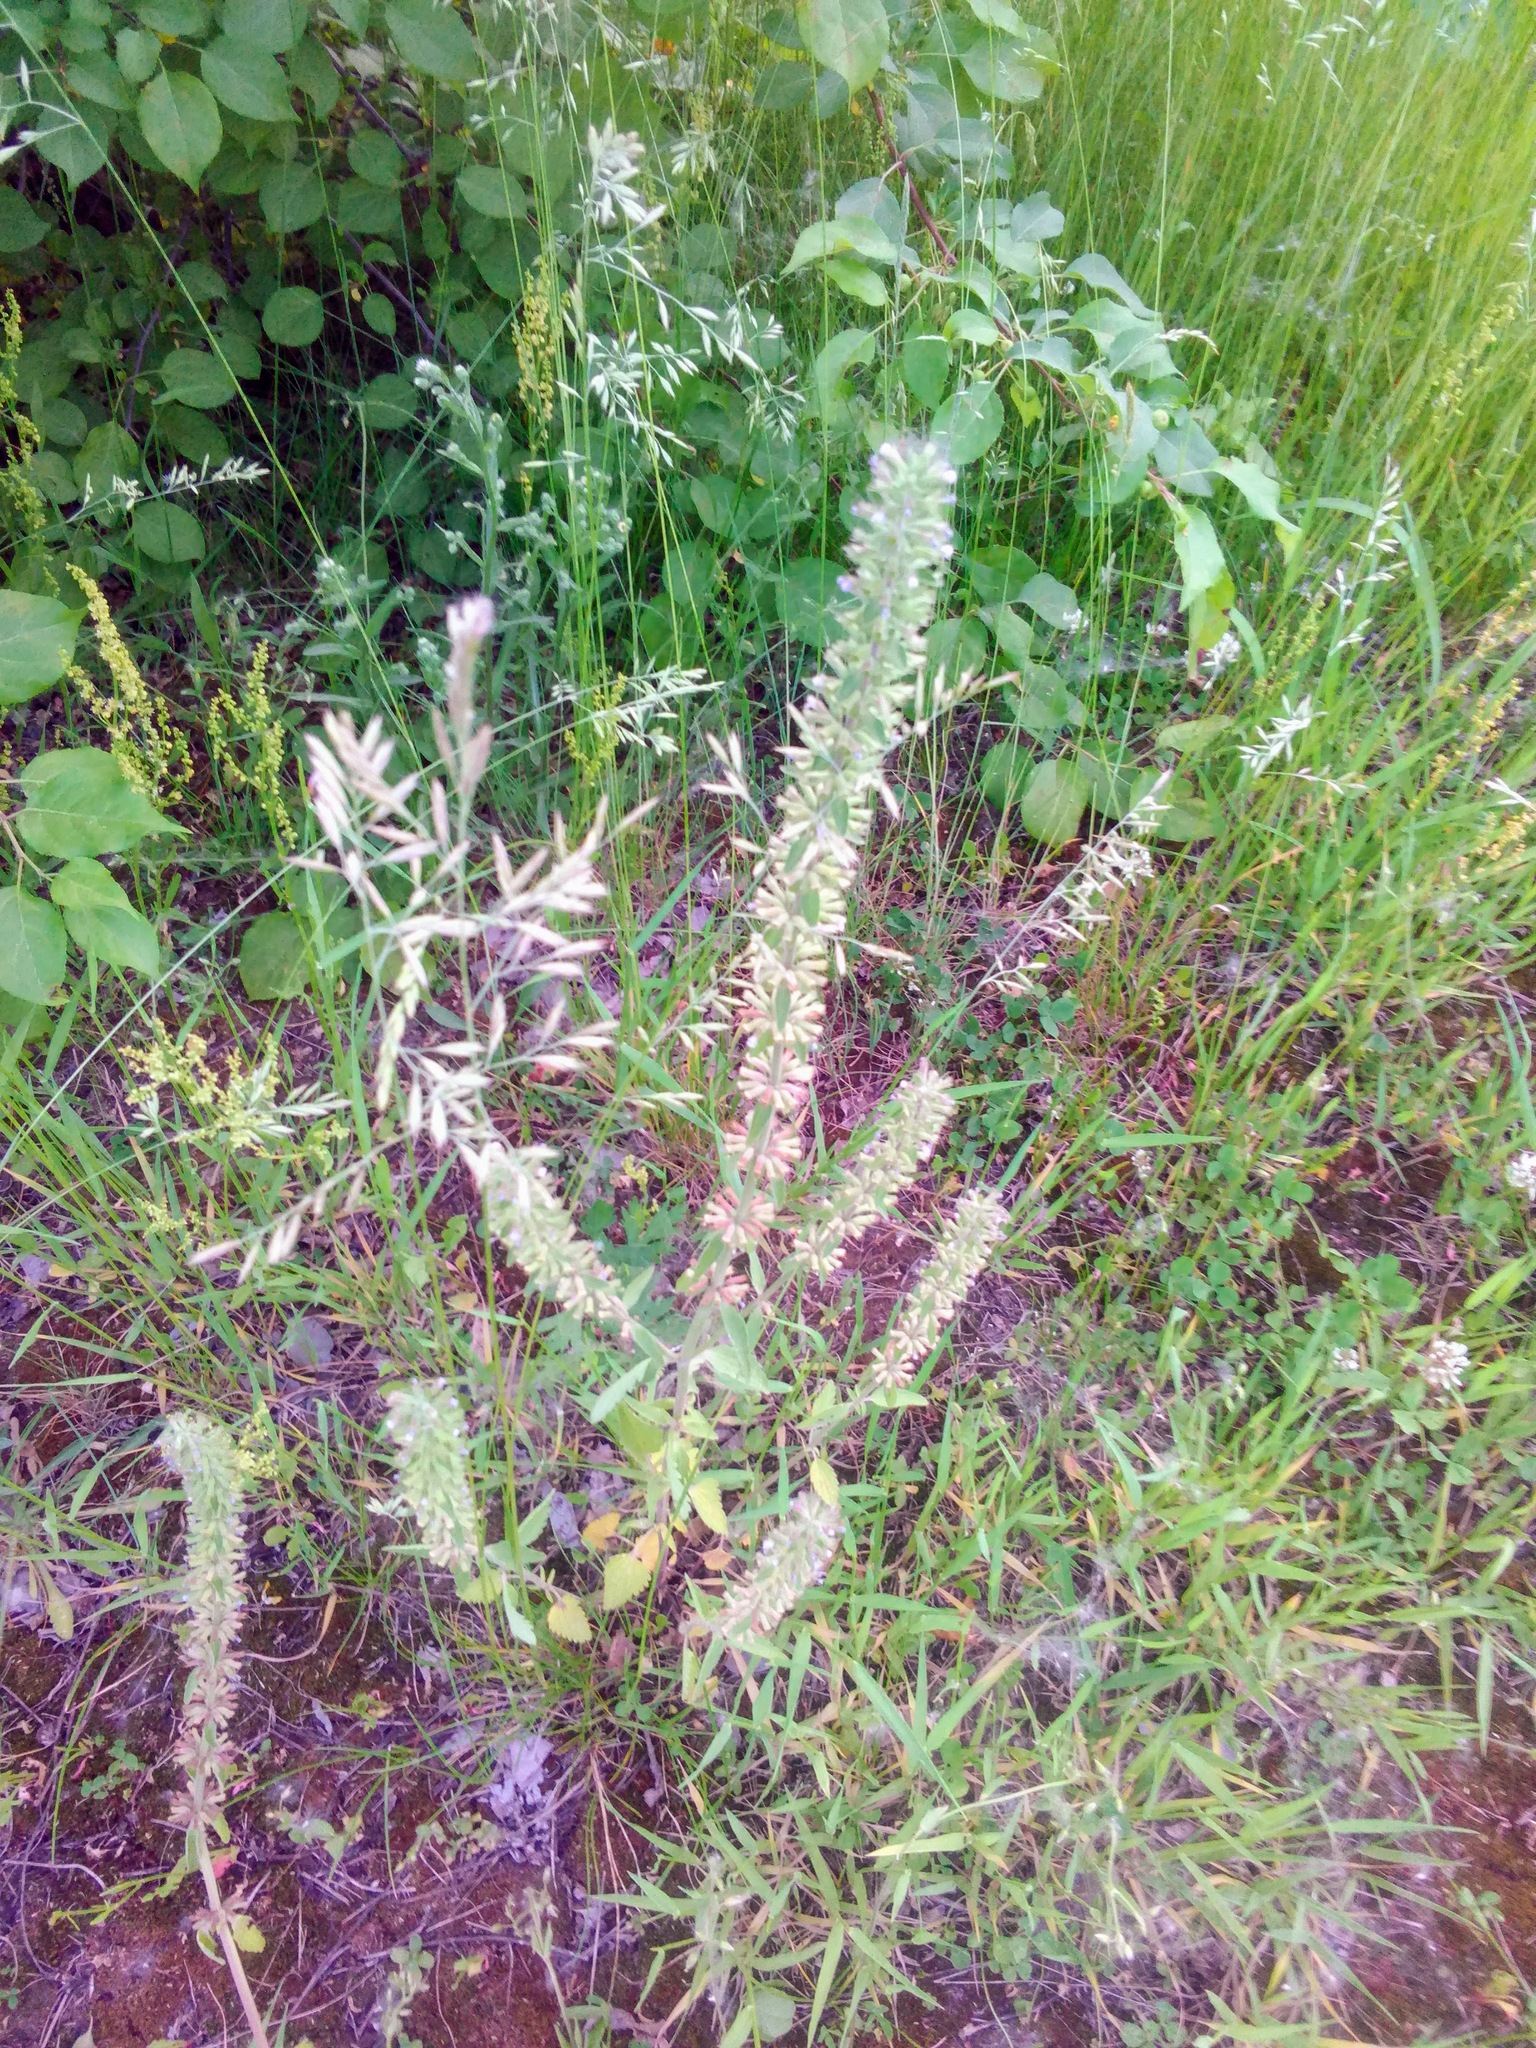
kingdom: Plantae
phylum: Tracheophyta
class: Magnoliopsida
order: Lamiales
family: Lamiaceae
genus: Dracocephalum
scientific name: Dracocephalum thymiflorum
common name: Thymeleaf dragonhead
